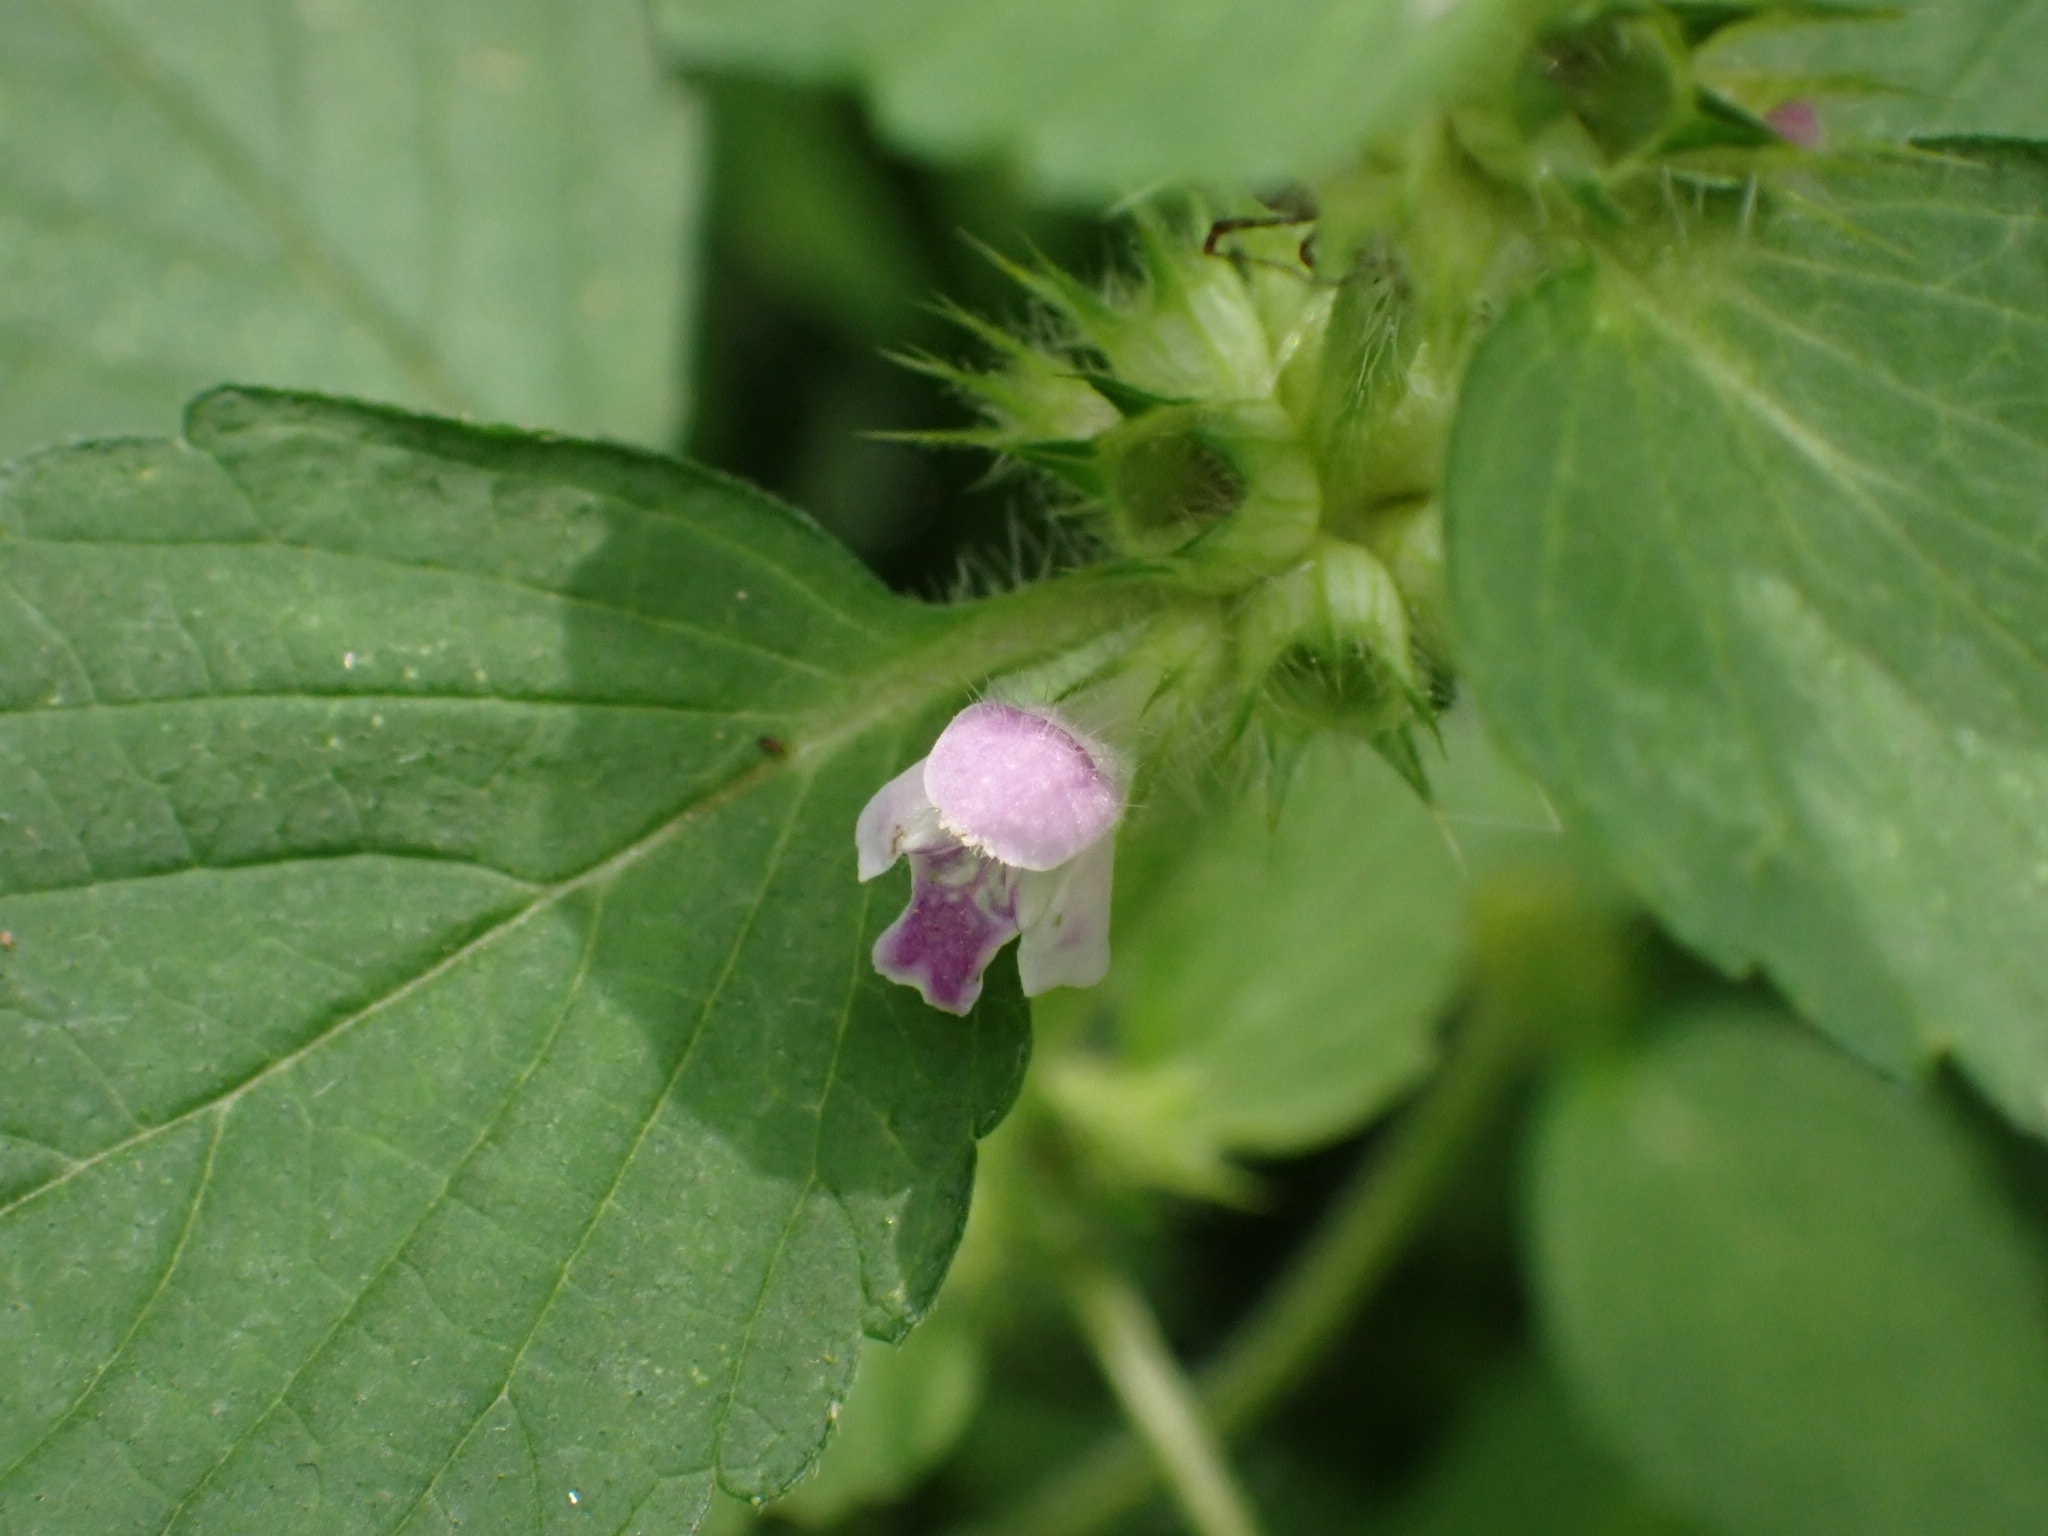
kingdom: Plantae
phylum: Tracheophyta
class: Magnoliopsida
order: Lamiales
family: Lamiaceae
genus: Galeopsis
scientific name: Galeopsis bifida
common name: Bifid hemp-nettle
